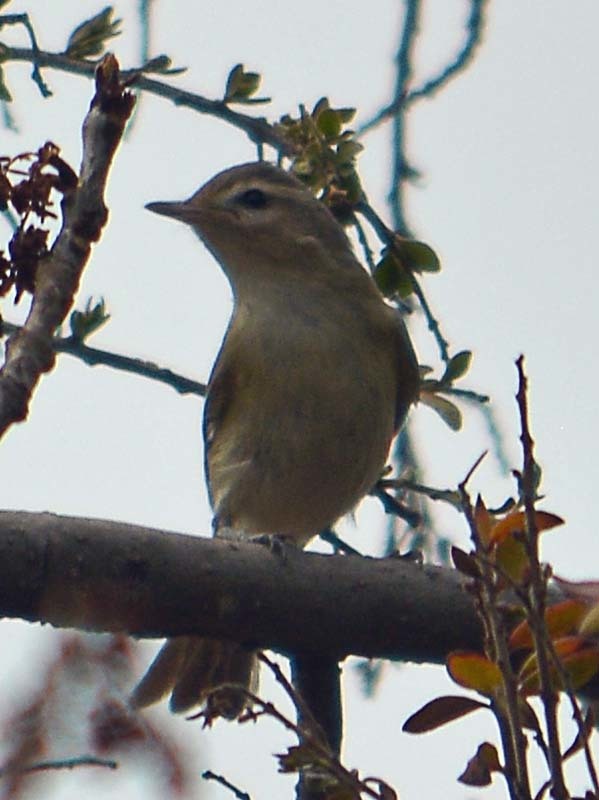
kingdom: Animalia
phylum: Chordata
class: Aves
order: Passeriformes
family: Vireonidae
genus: Vireo
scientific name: Vireo gilvus
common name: Warbling vireo
